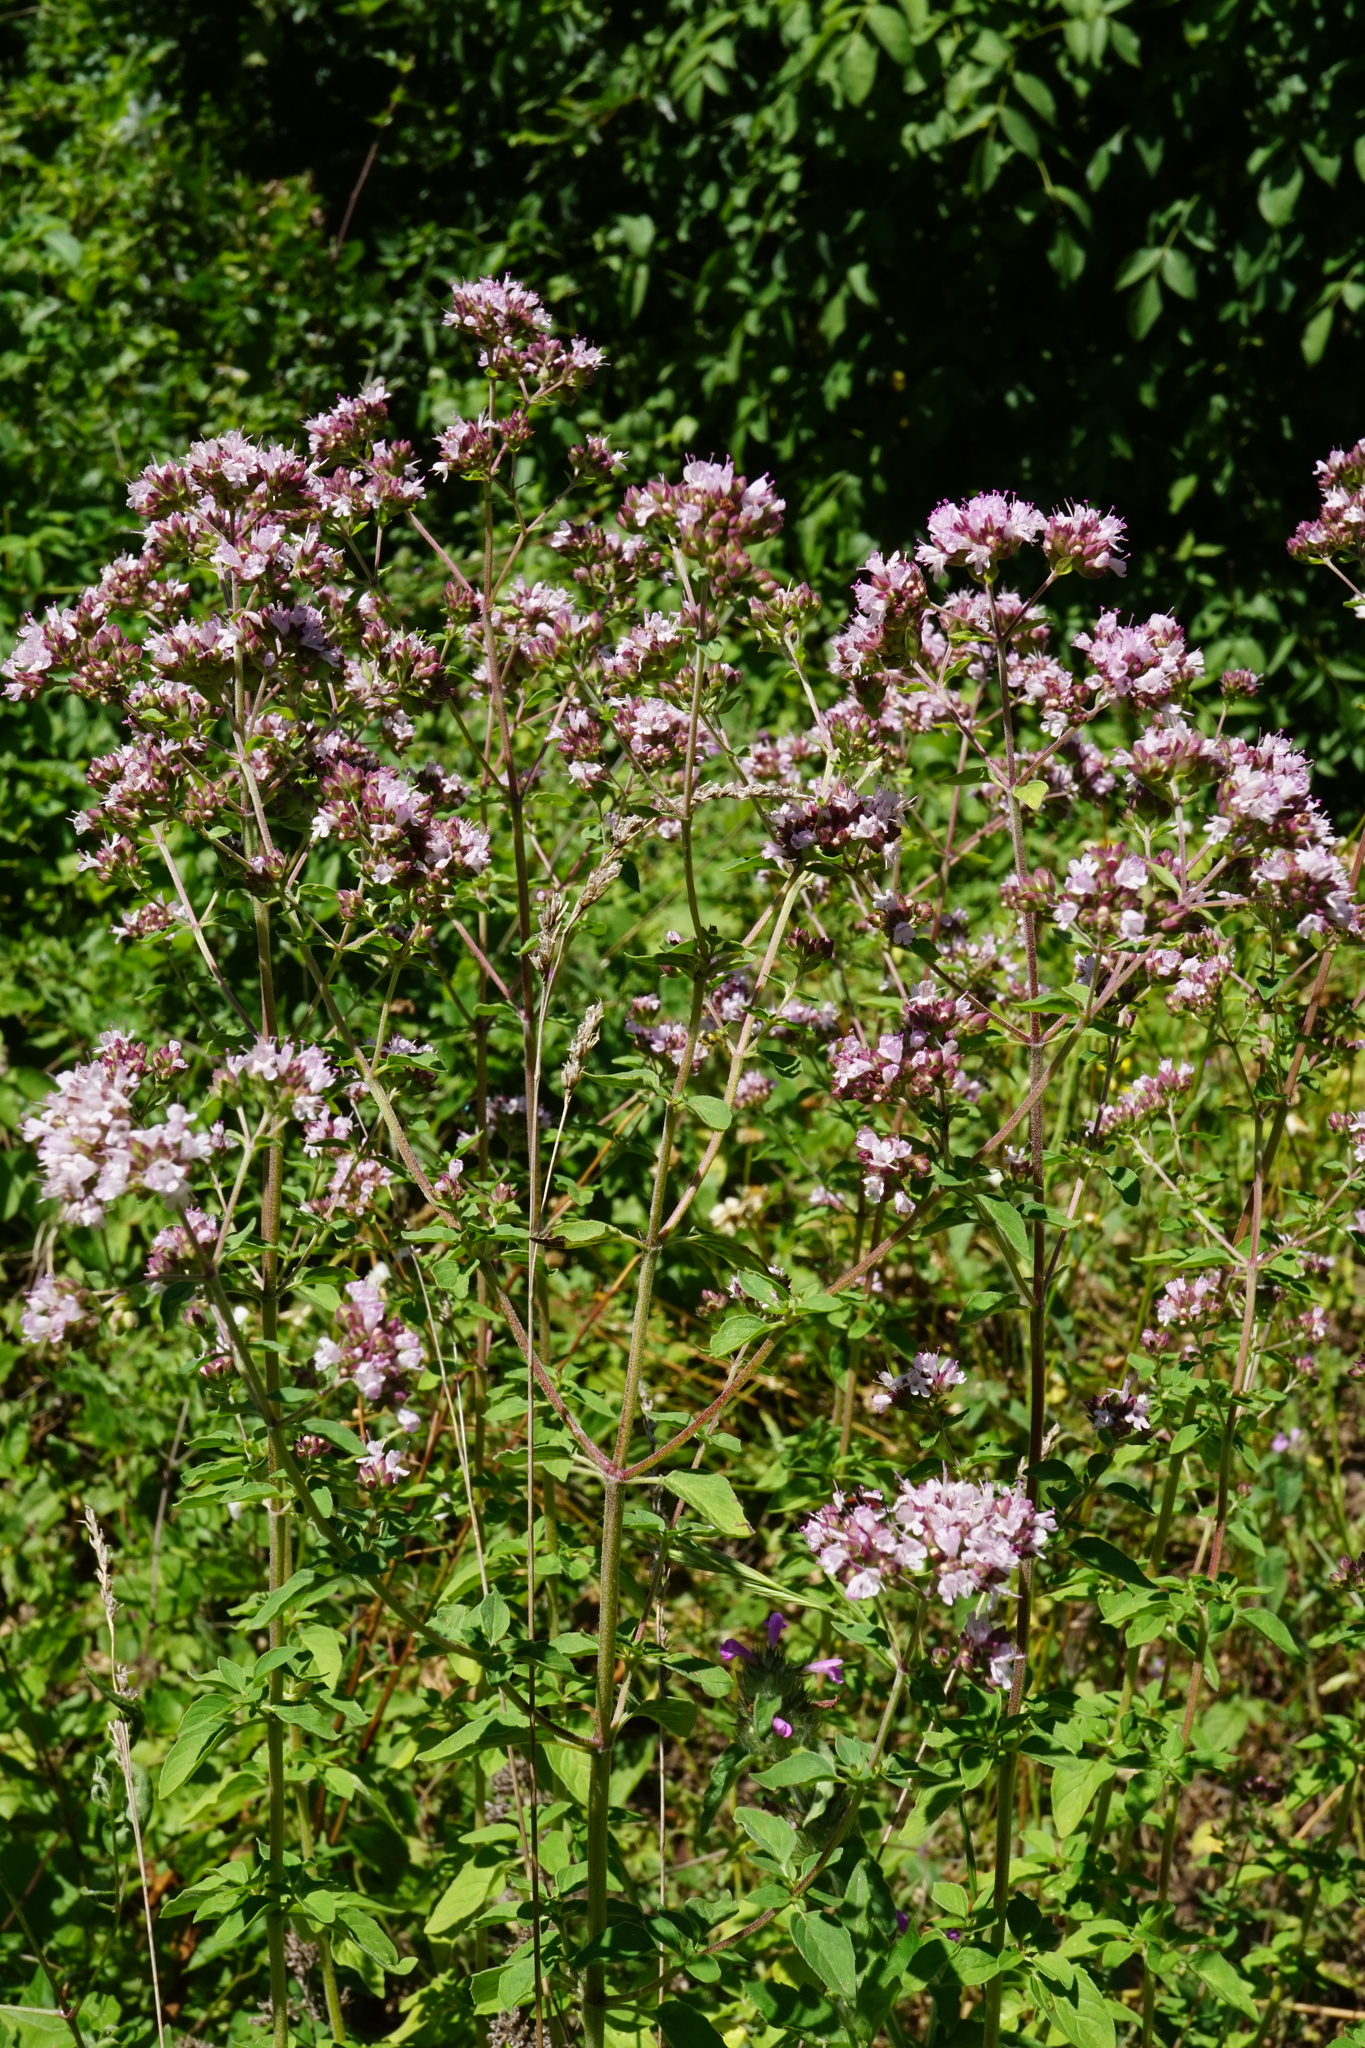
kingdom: Plantae
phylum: Tracheophyta
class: Magnoliopsida
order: Lamiales
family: Lamiaceae
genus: Origanum
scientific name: Origanum vulgare
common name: Wild marjoram
